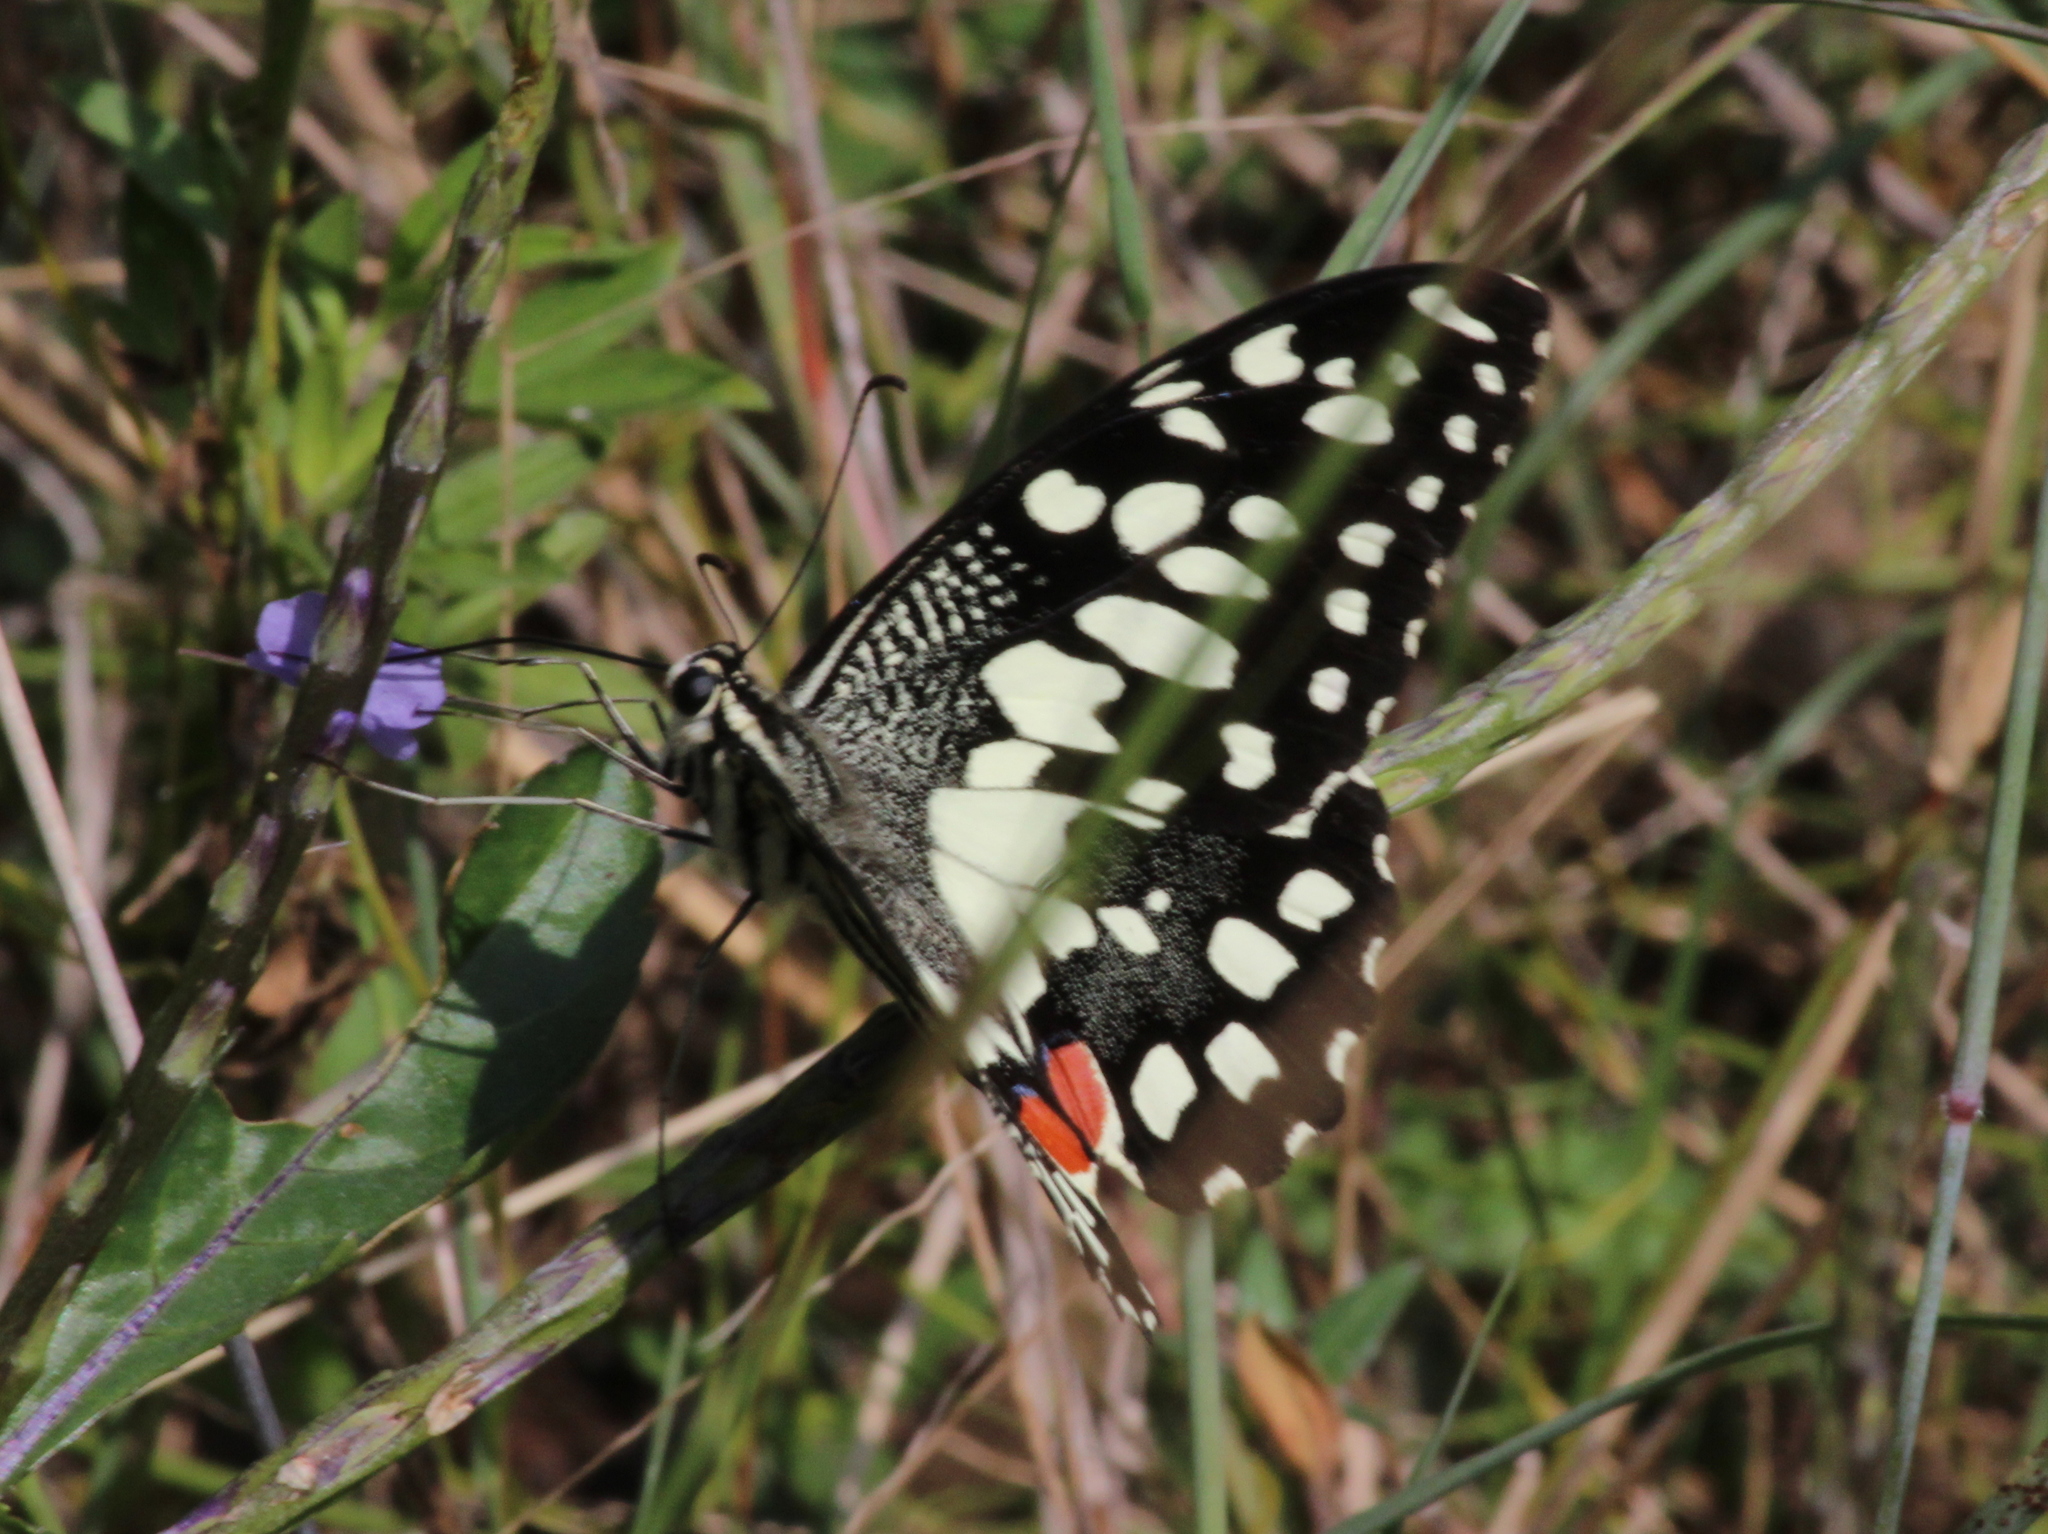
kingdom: Animalia
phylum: Arthropoda
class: Insecta
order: Lepidoptera
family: Papilionidae
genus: Papilio
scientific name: Papilio demoleus
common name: Lime butterfly
